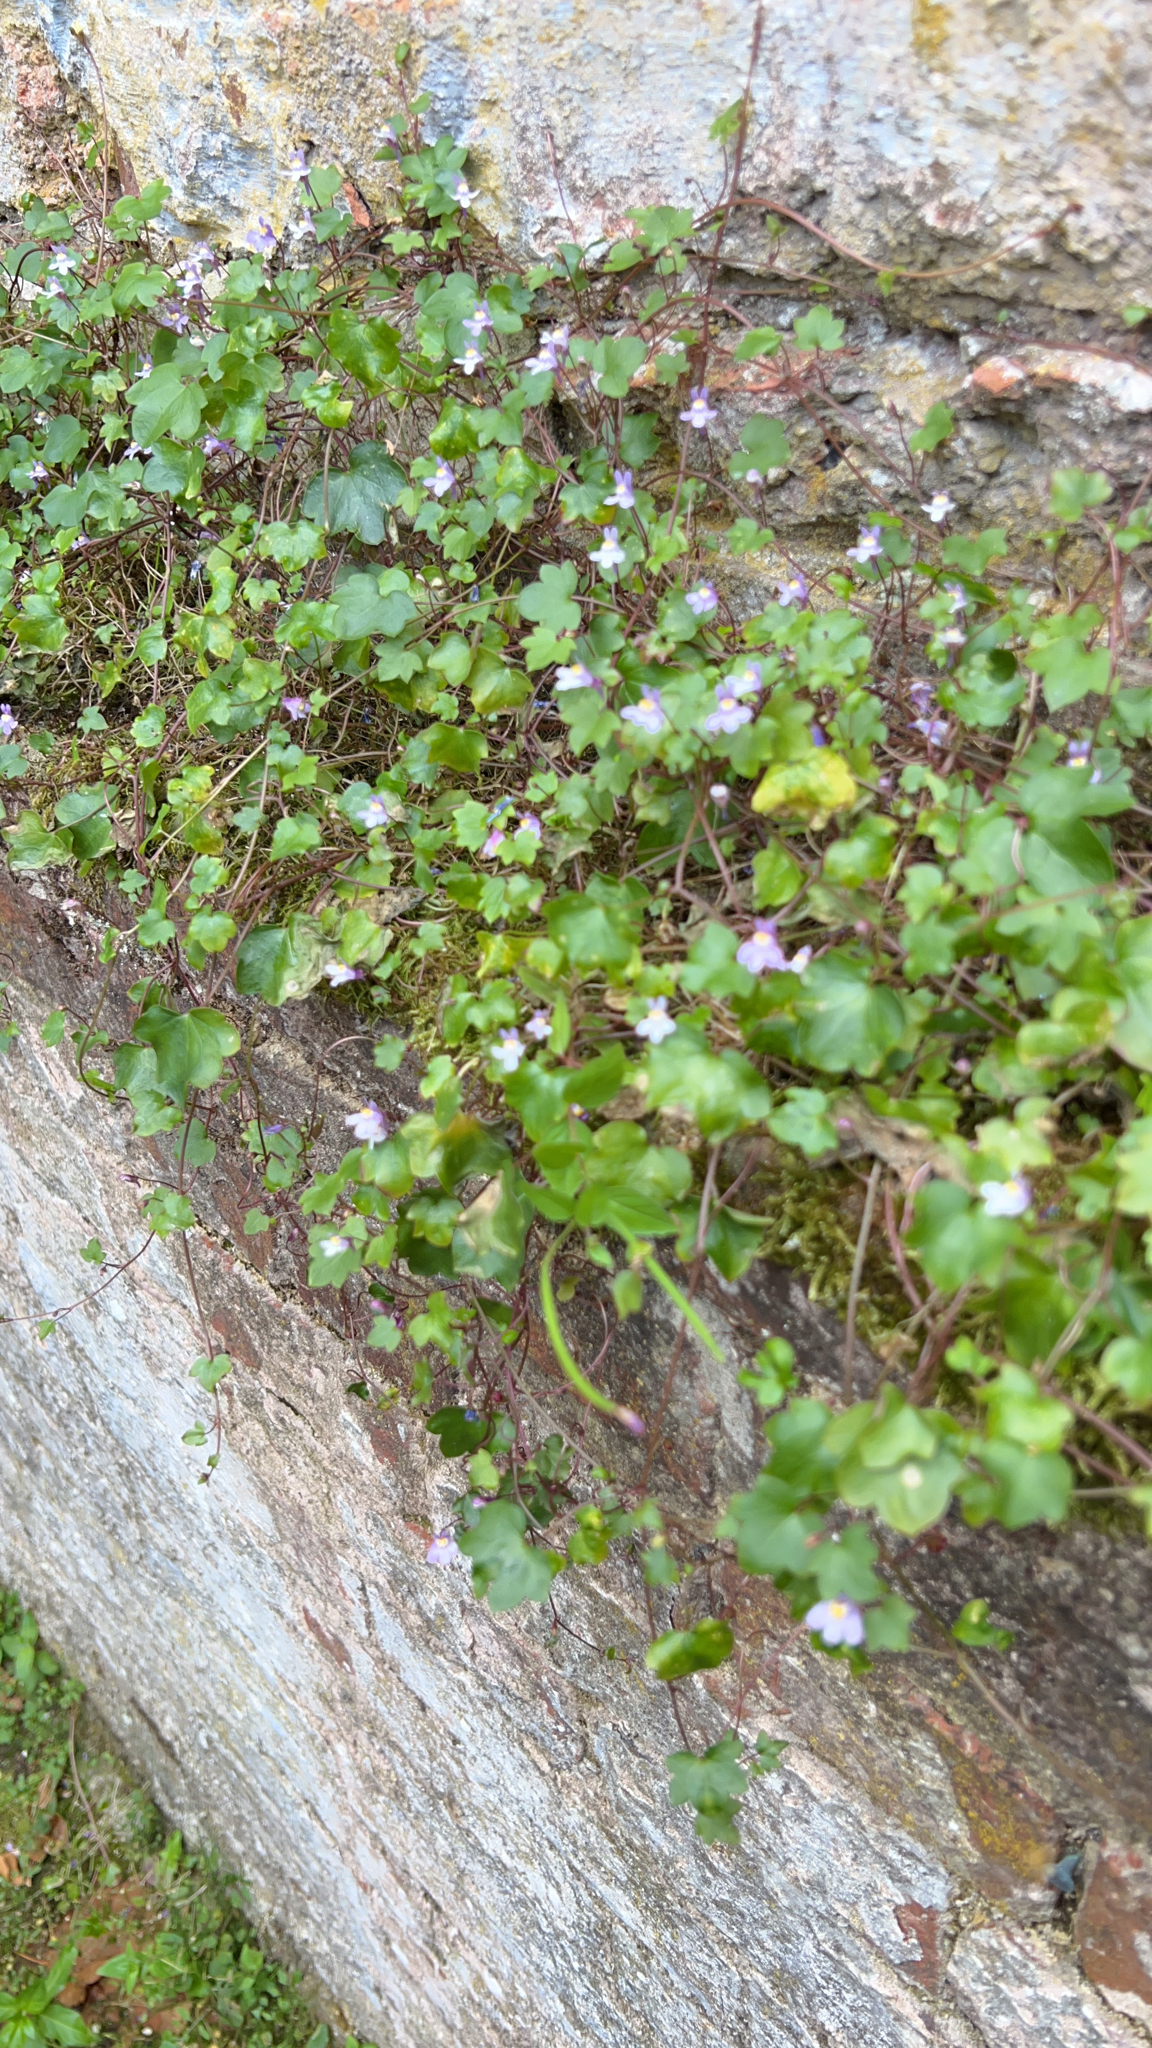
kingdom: Plantae
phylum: Tracheophyta
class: Magnoliopsida
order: Lamiales
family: Plantaginaceae
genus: Cymbalaria
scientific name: Cymbalaria muralis
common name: Ivy-leaved toadflax
